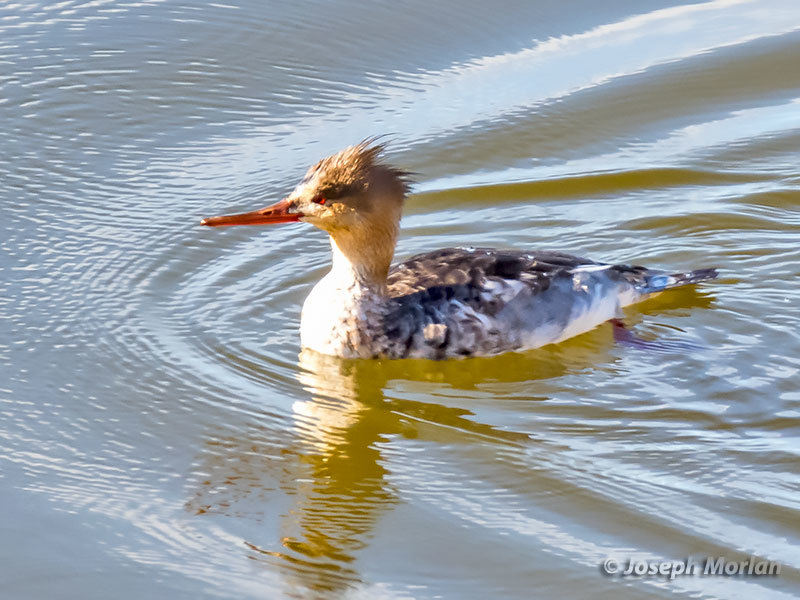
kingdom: Animalia
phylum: Chordata
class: Aves
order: Anseriformes
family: Anatidae
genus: Mergus
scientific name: Mergus serrator
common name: Red-breasted merganser
